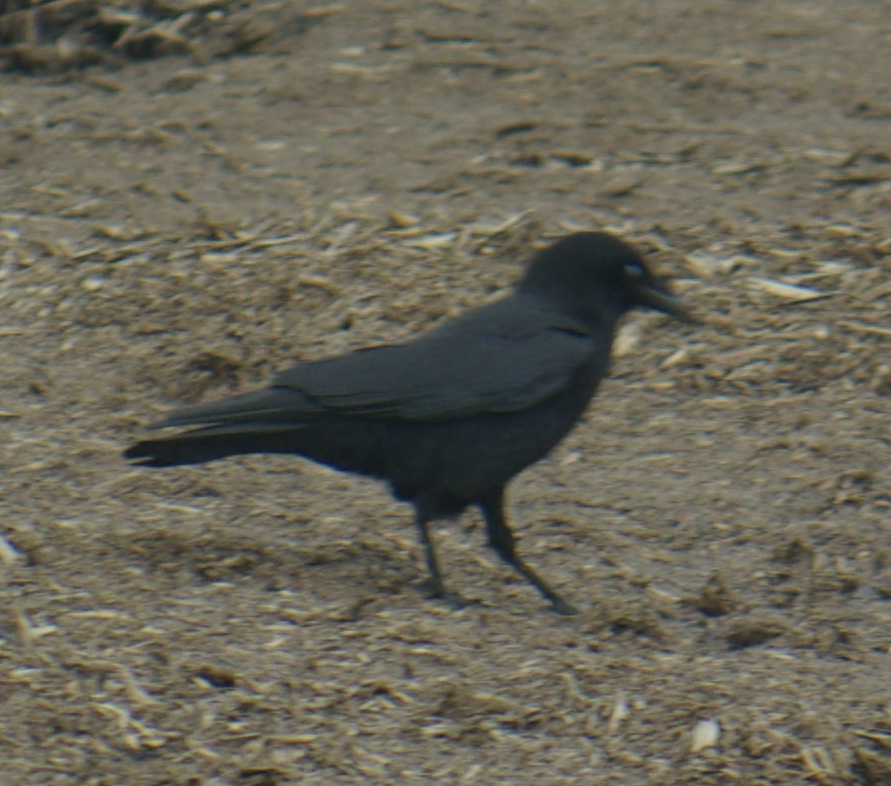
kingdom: Animalia
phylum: Chordata
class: Aves
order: Passeriformes
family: Corvidae
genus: Corvus
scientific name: Corvus brachyrhynchos
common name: American crow
